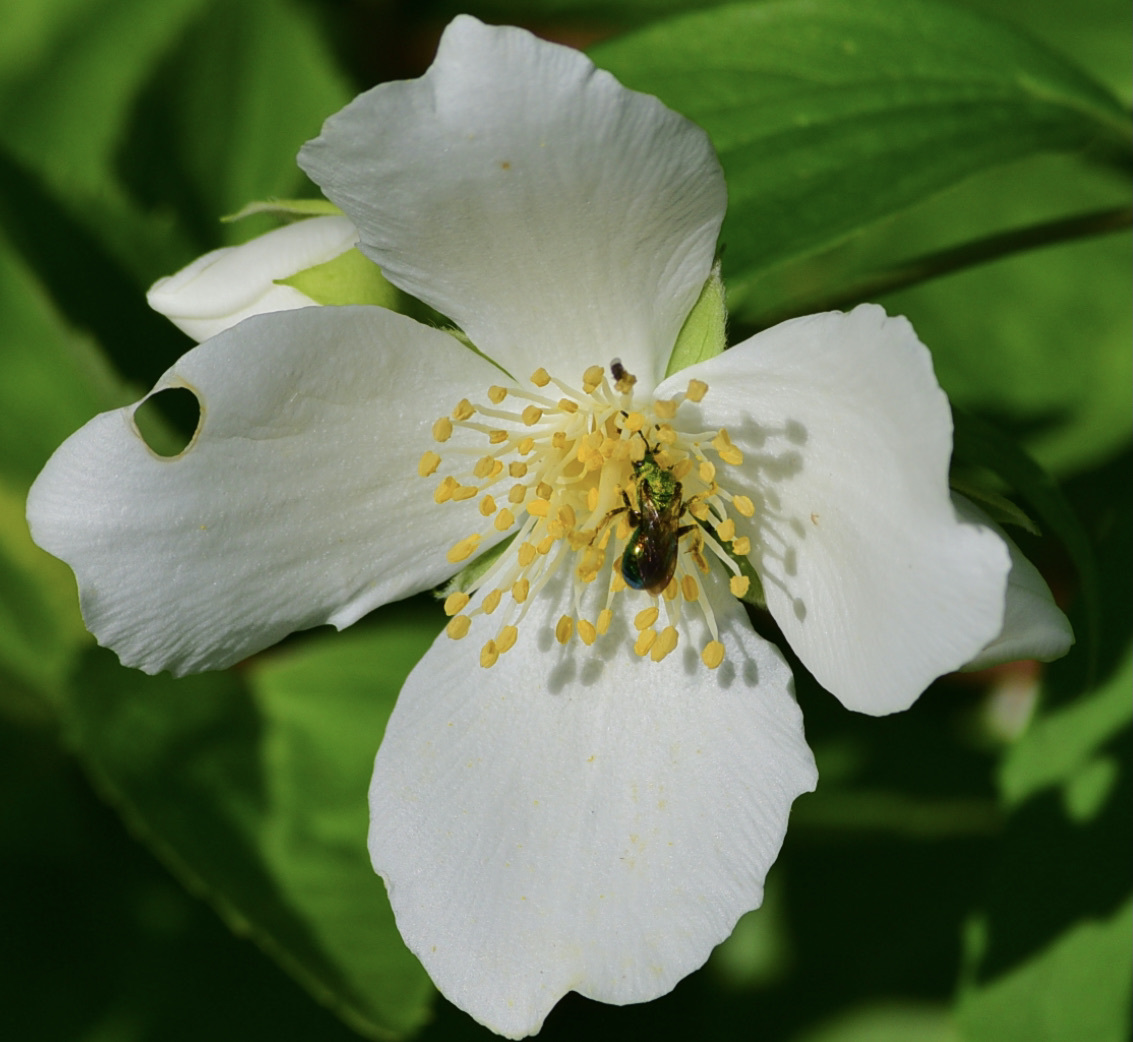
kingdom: Animalia
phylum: Arthropoda
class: Insecta
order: Hymenoptera
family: Halictidae
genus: Augochlora
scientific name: Augochlora pura
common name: Pure green sweat bee
